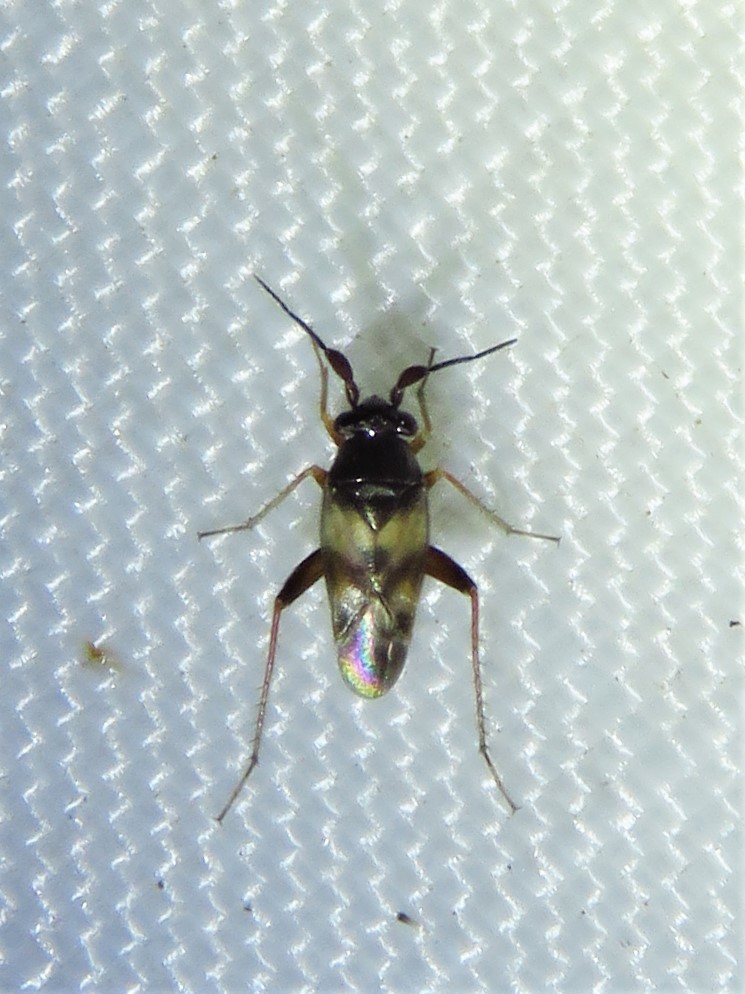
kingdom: Animalia
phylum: Arthropoda
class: Insecta
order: Hemiptera
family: Miridae
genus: Spanagonicus
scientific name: Spanagonicus albofasciatus
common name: Whitemarked fleahopper
